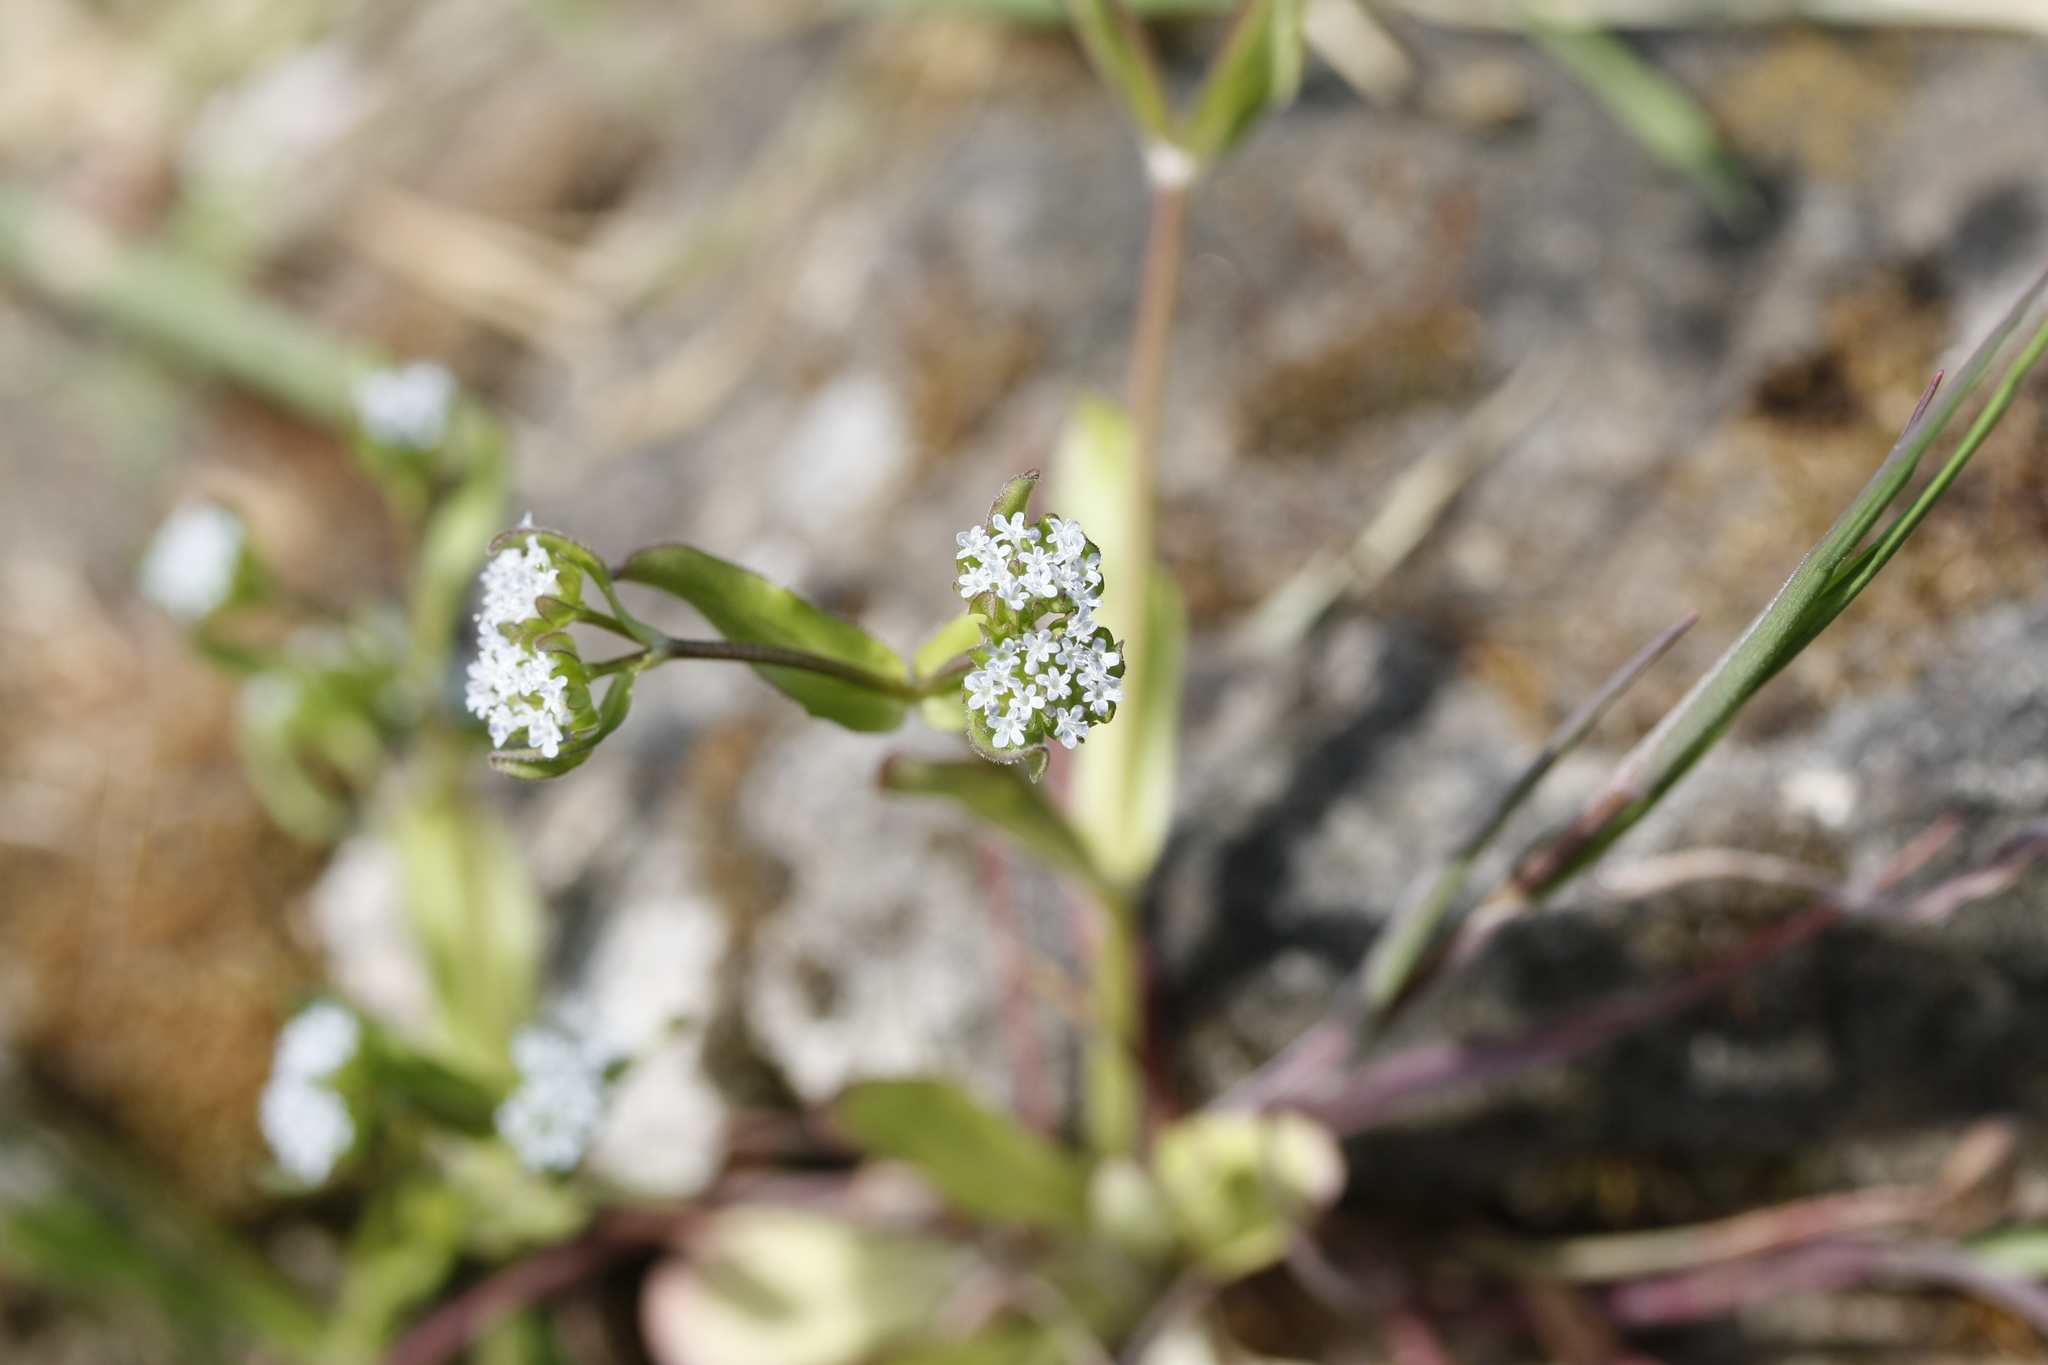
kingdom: Plantae
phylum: Tracheophyta
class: Magnoliopsida
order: Dipsacales
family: Caprifoliaceae
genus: Valerianella
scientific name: Valerianella locusta
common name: Common cornsalad
